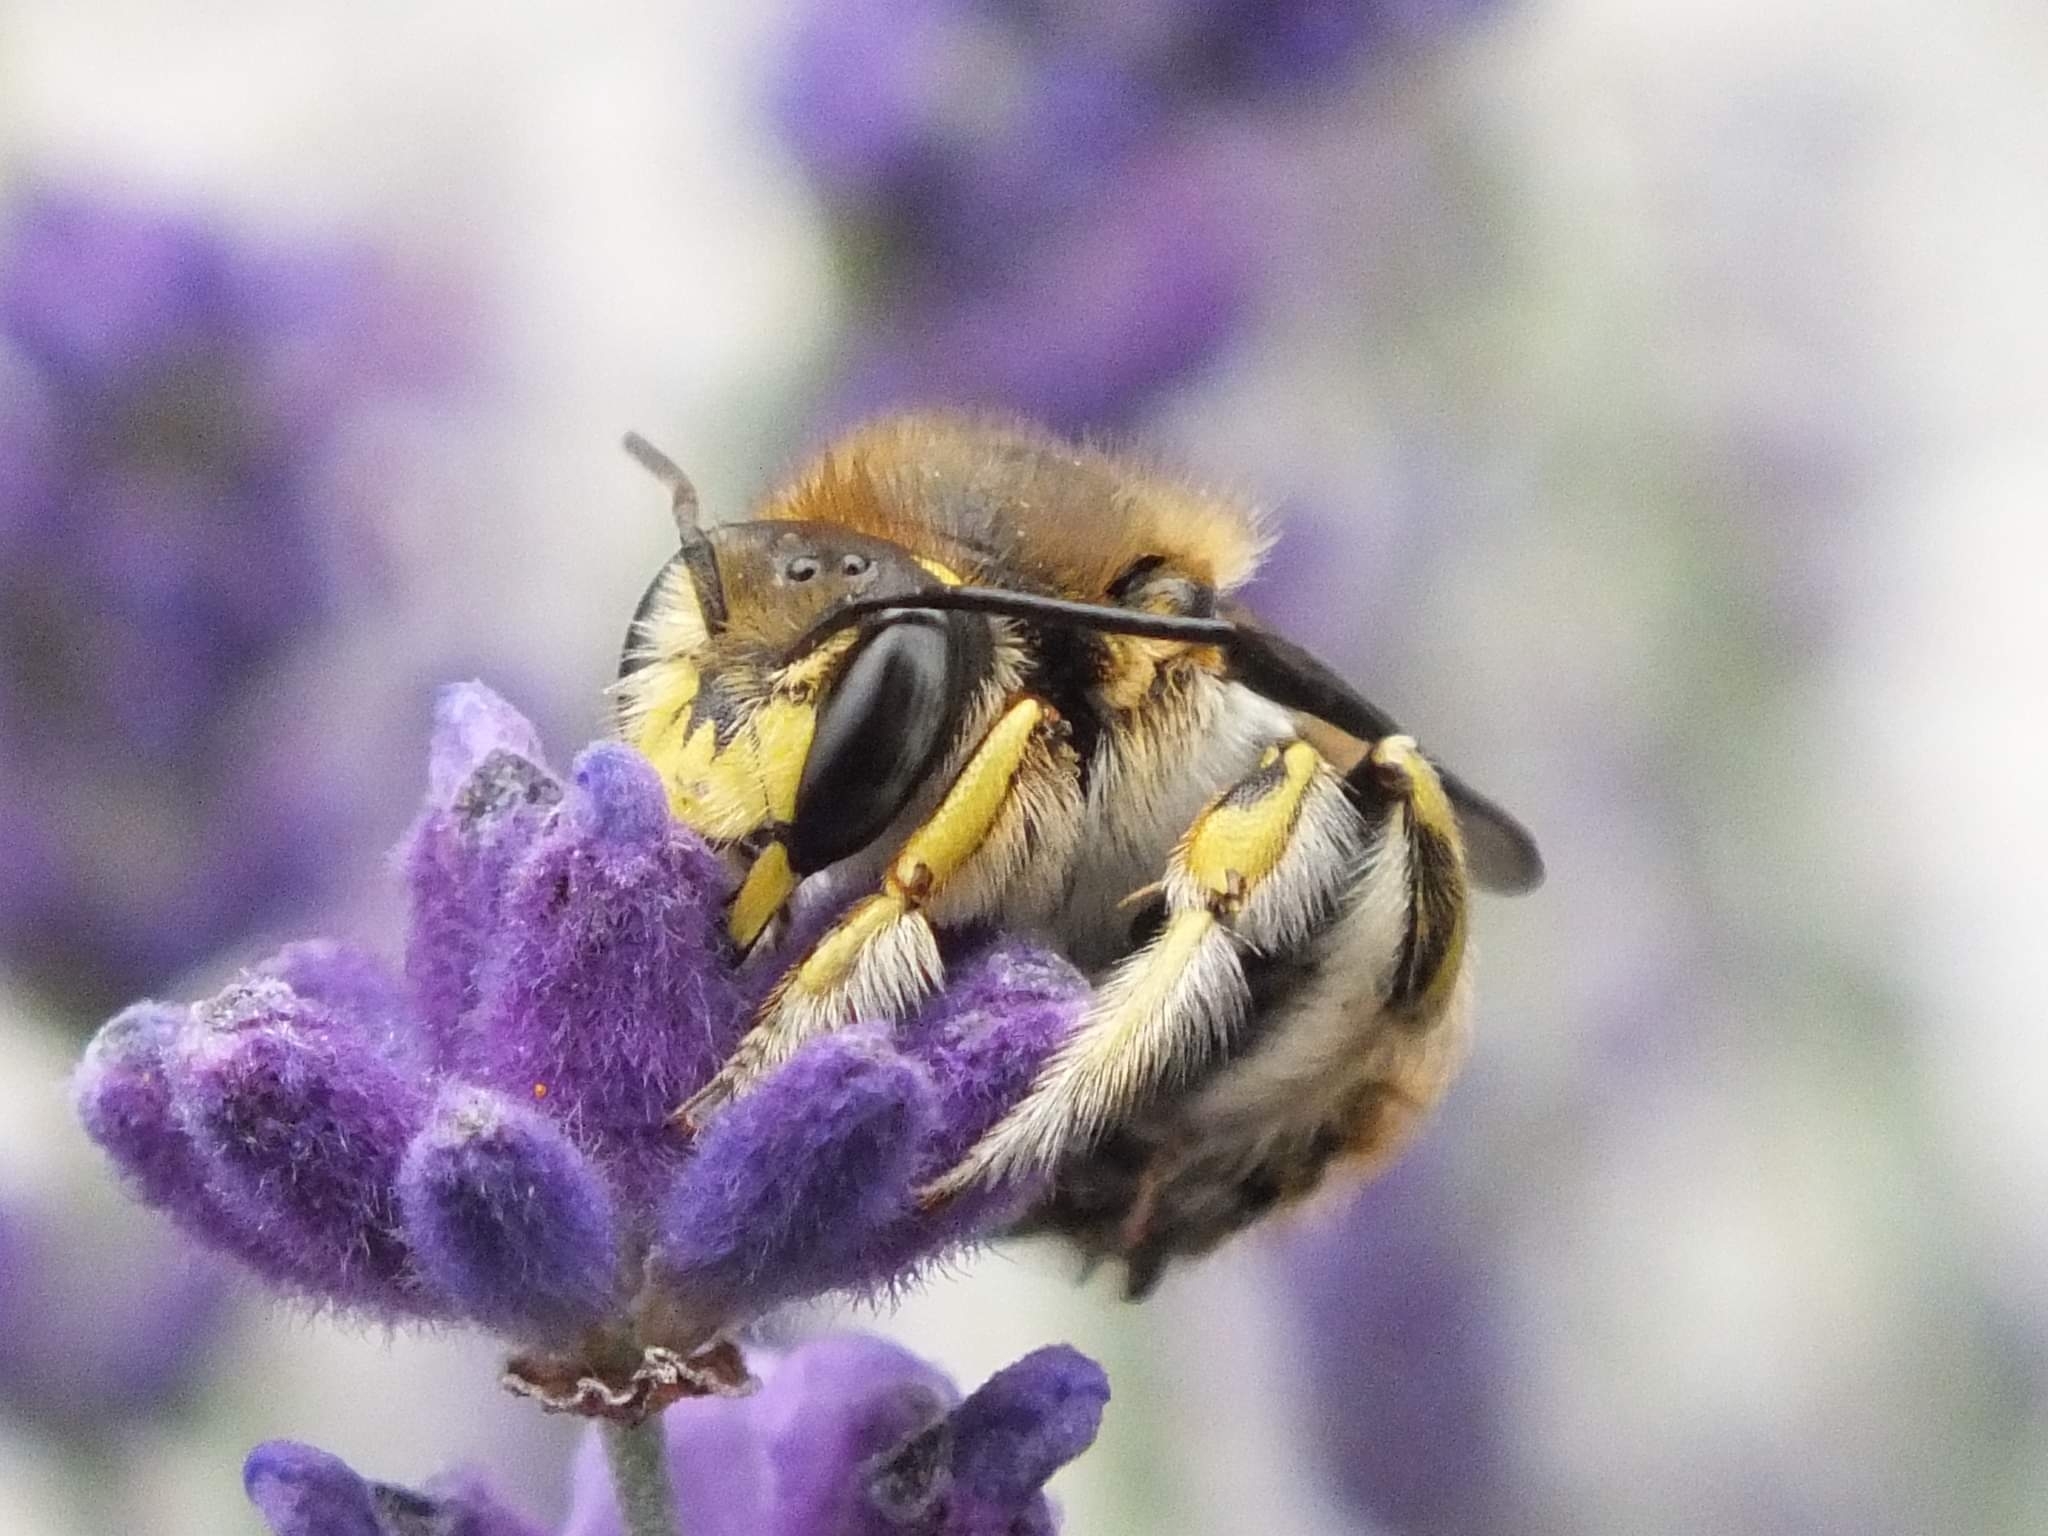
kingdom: Animalia
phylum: Arthropoda
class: Insecta
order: Hymenoptera
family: Megachilidae
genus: Anthidium
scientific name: Anthidium manicatum
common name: Wool carder bee
